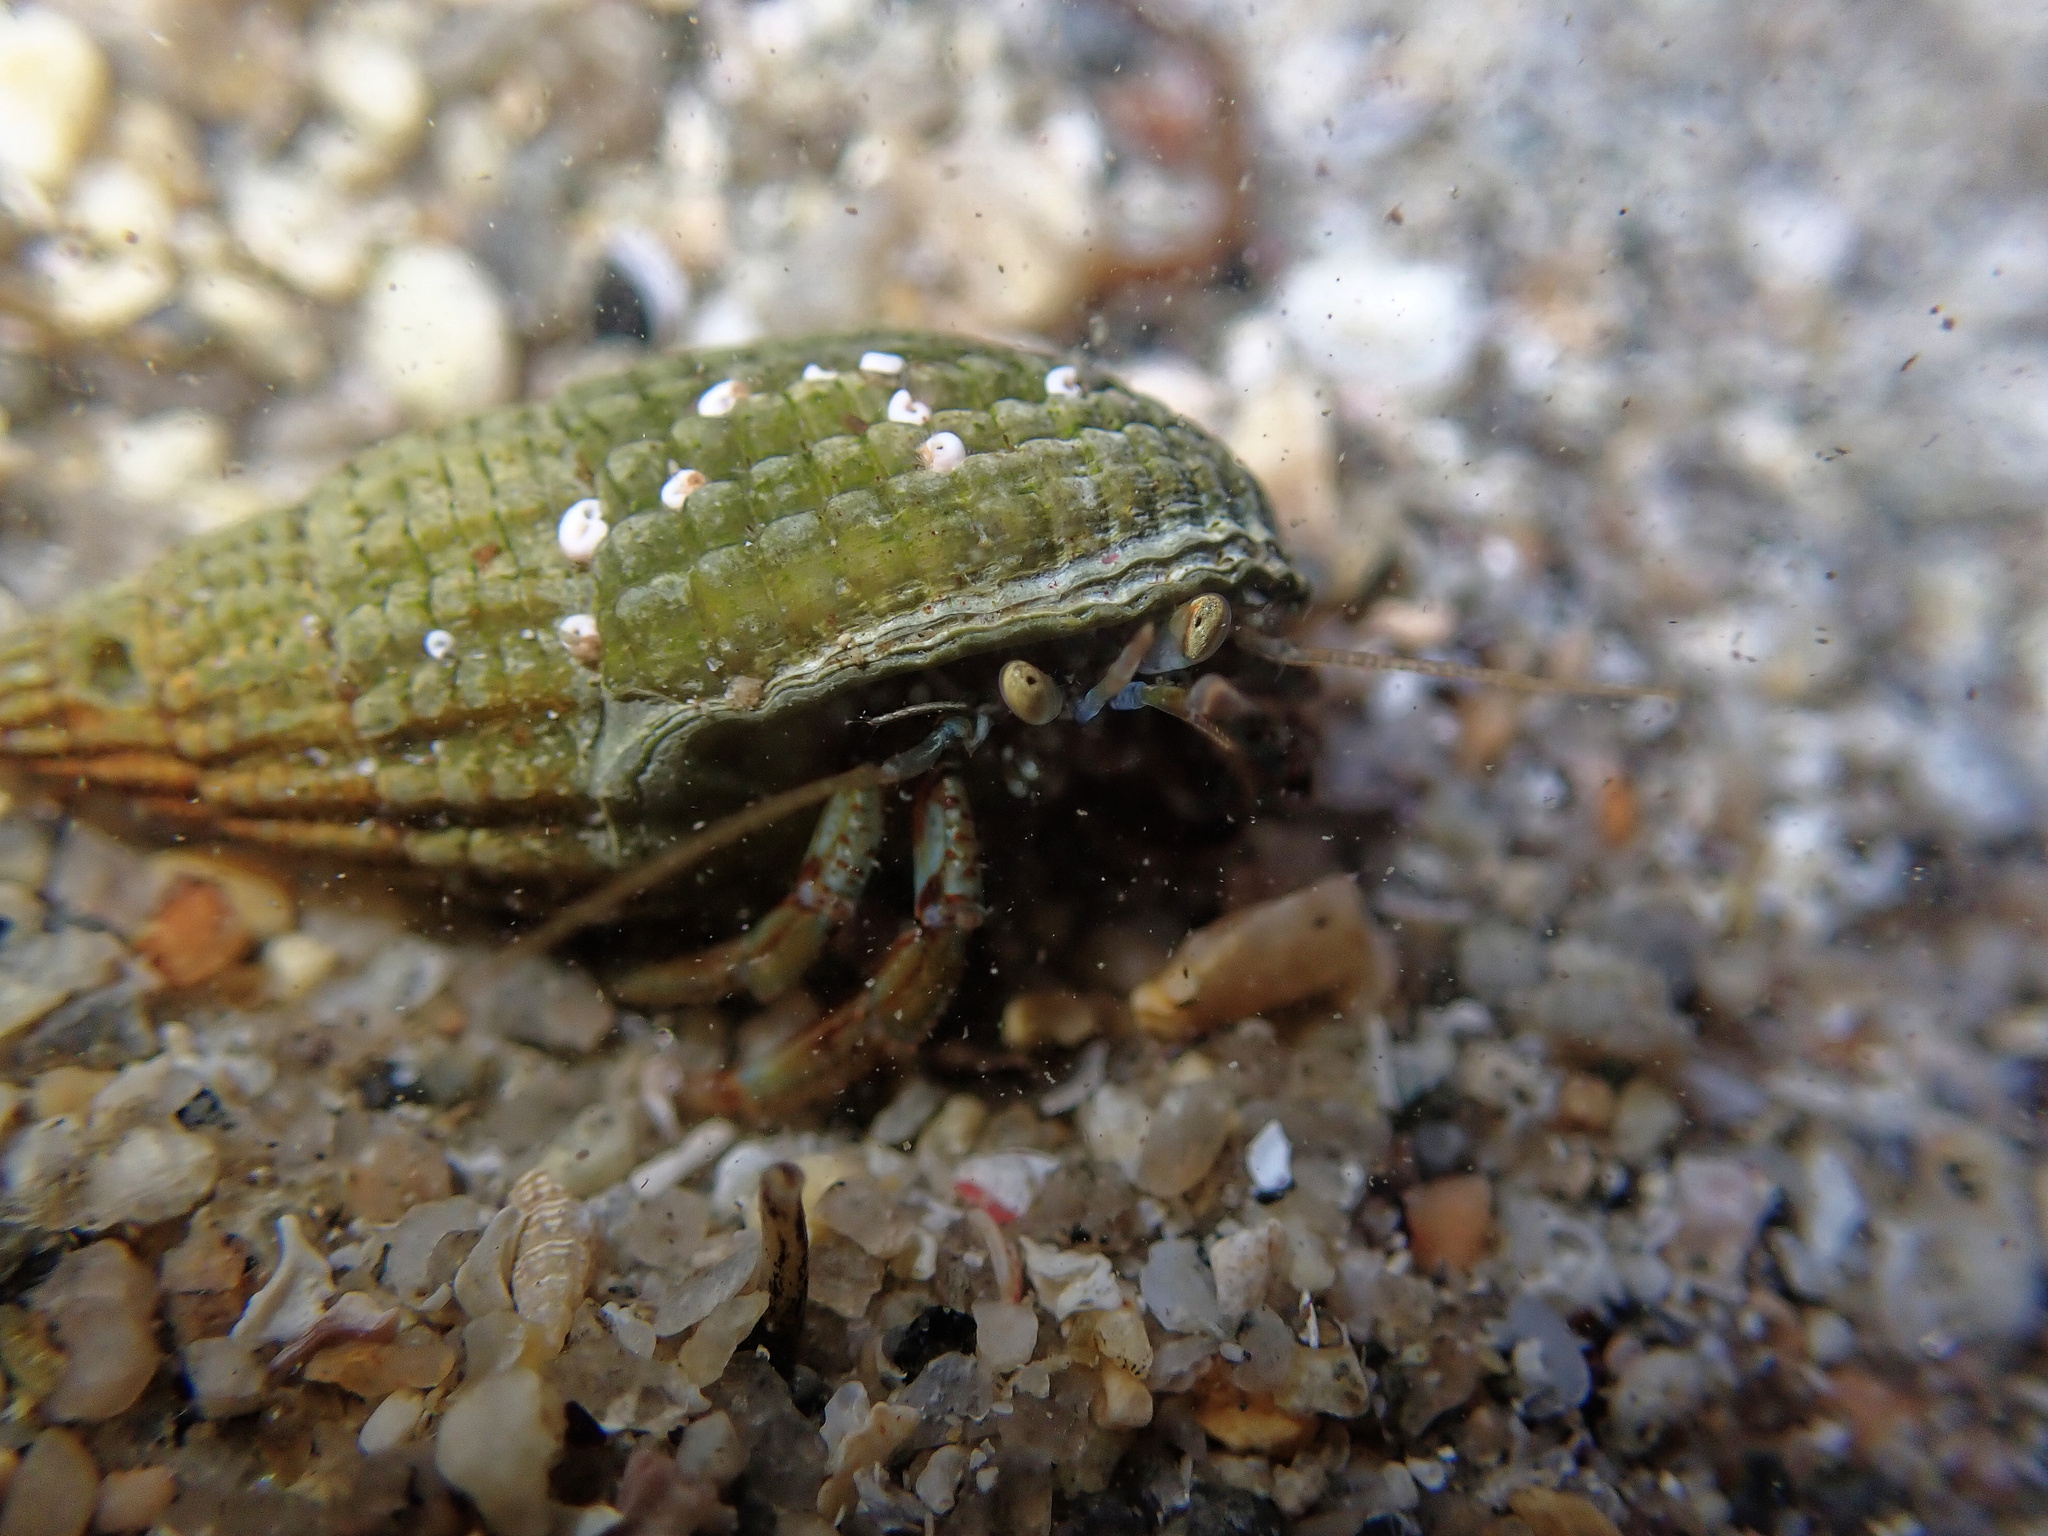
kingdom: Animalia
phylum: Arthropoda
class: Malacostraca
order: Decapoda
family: Paguridae
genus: Pagurus
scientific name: Pagurus bernhardus
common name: Hermit crab
